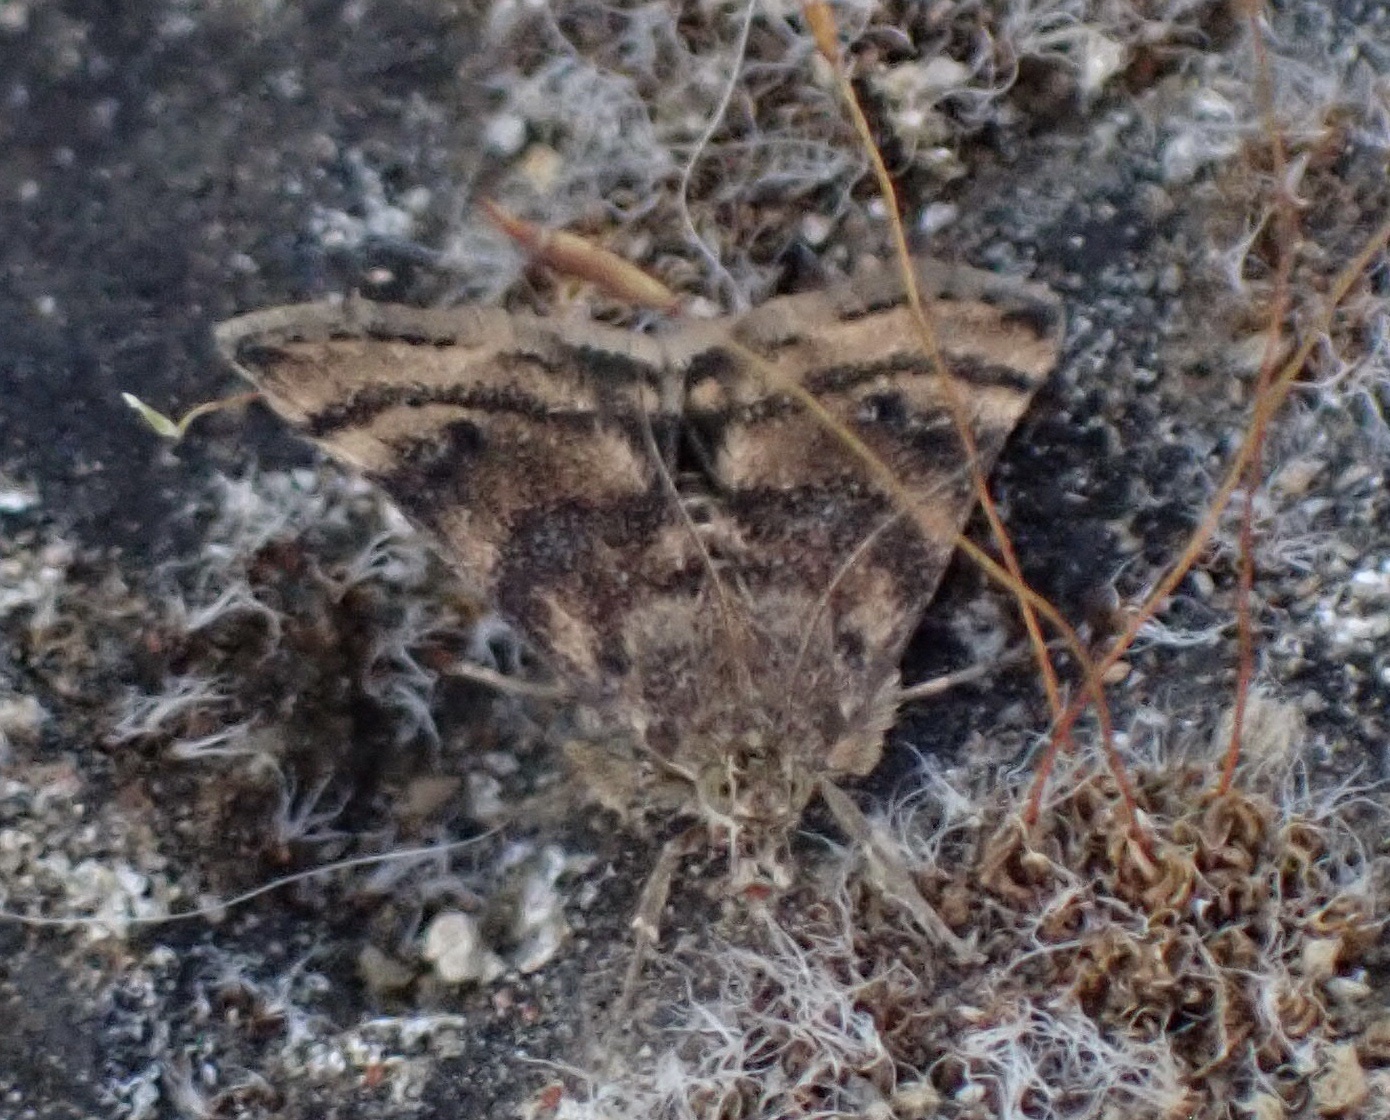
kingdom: Animalia
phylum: Arthropoda
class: Insecta
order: Lepidoptera
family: Crambidae
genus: Noctuelia
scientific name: Noctuelia Aporodes floralis
